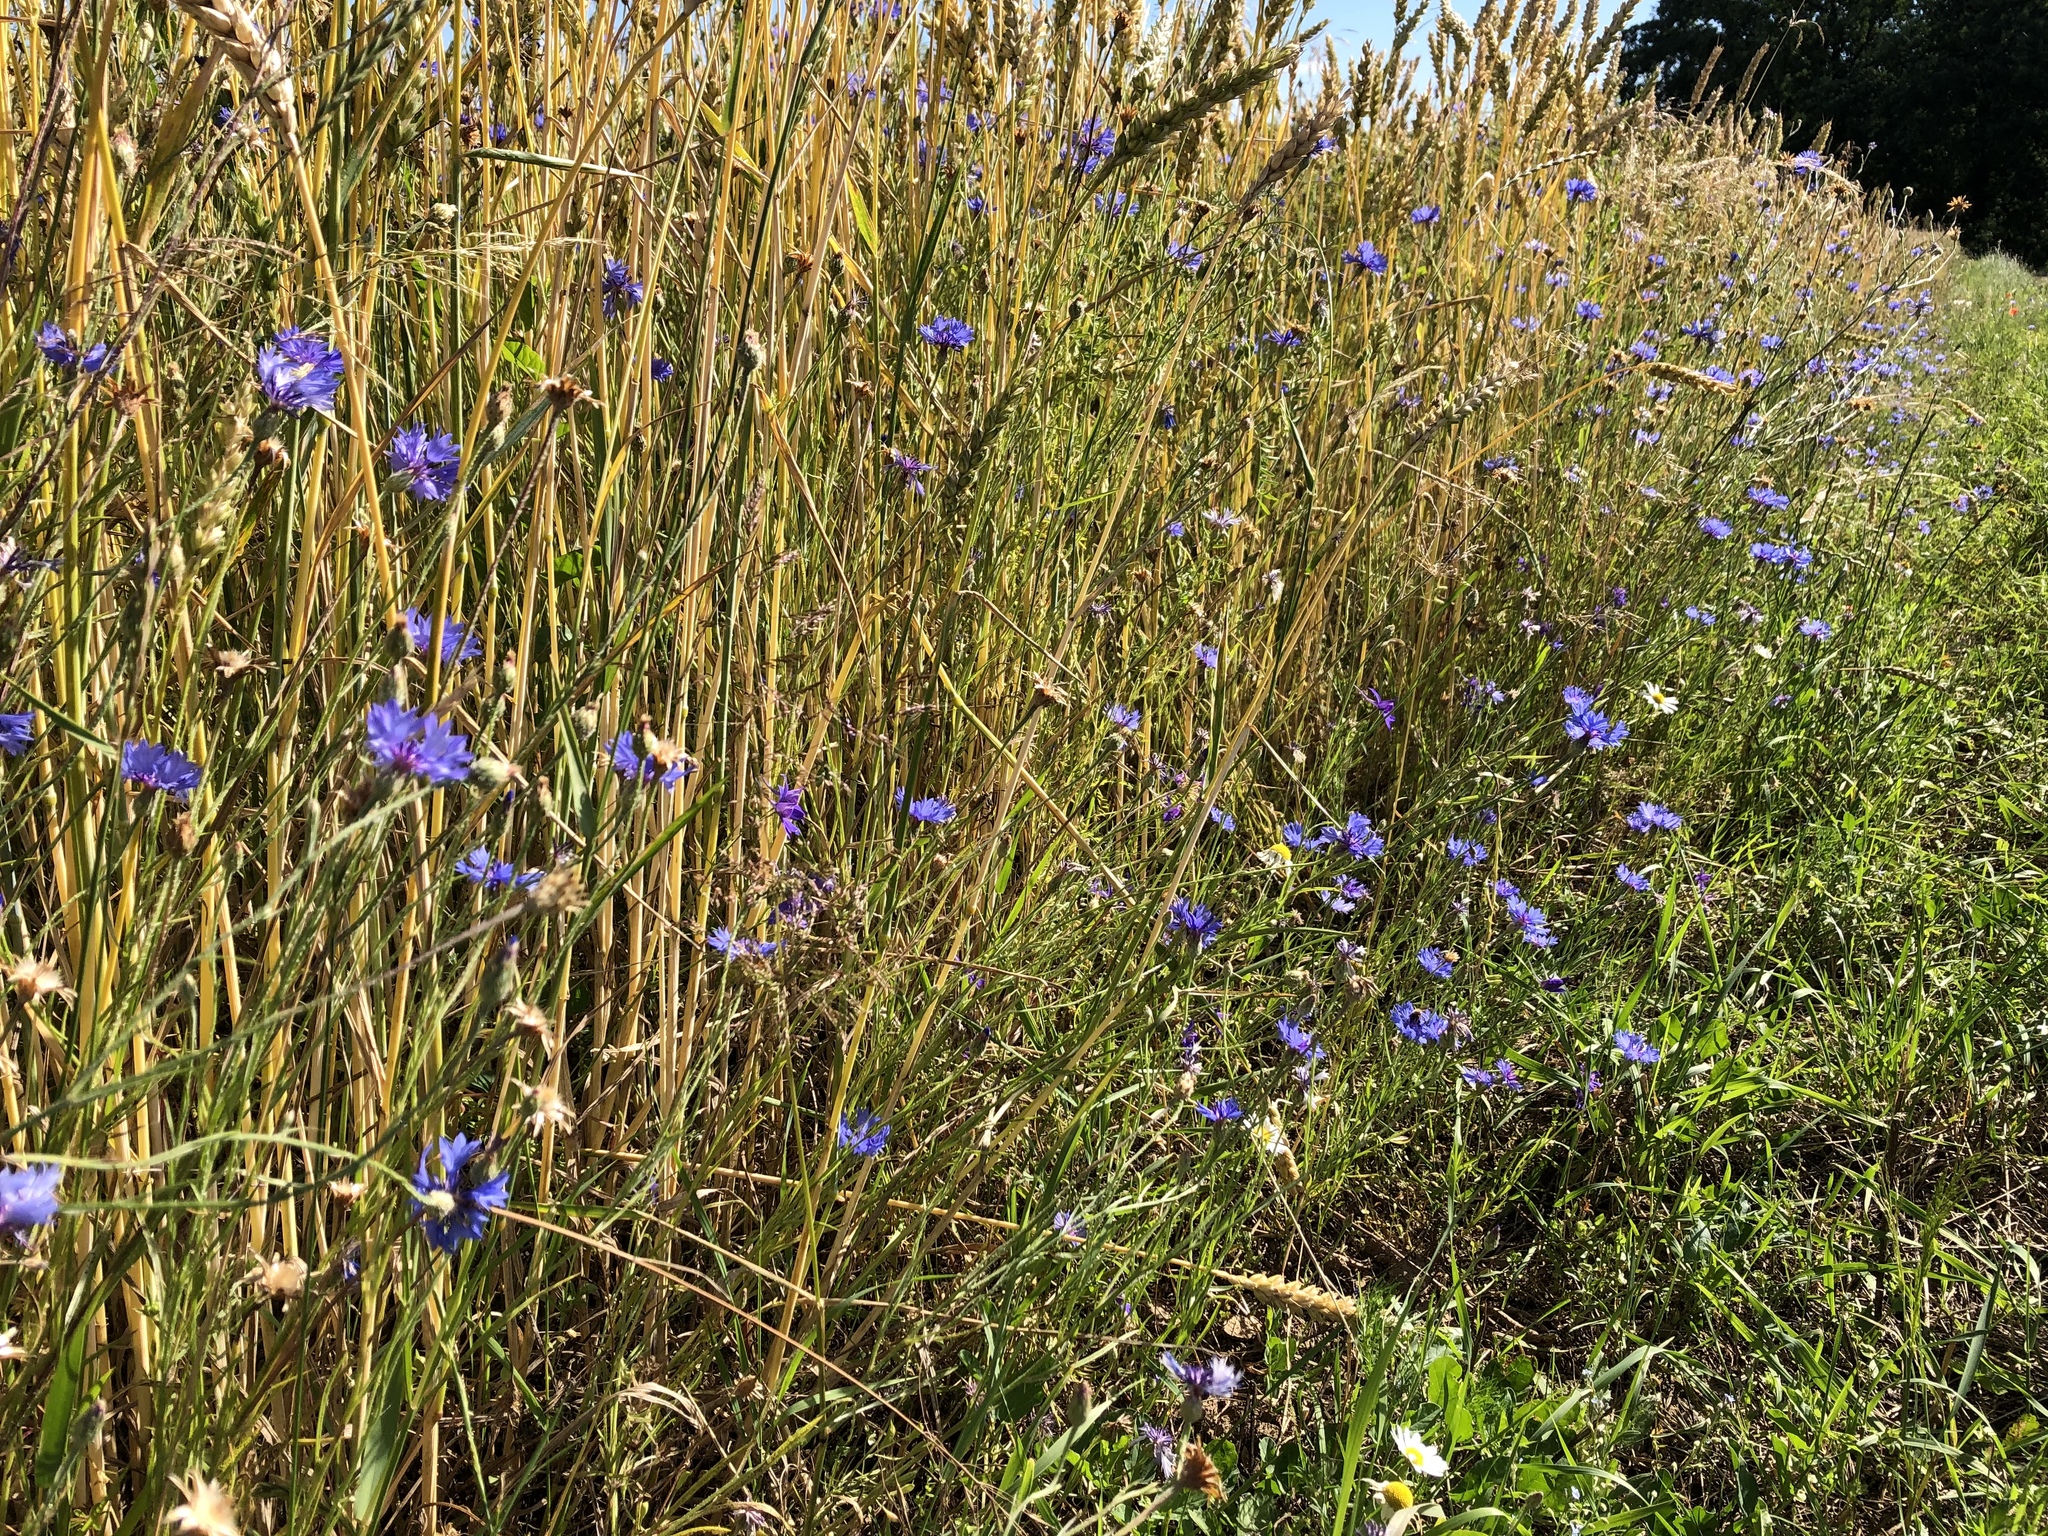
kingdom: Plantae
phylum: Tracheophyta
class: Magnoliopsida
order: Asterales
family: Asteraceae
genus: Centaurea
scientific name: Centaurea cyanus
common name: Cornflower
